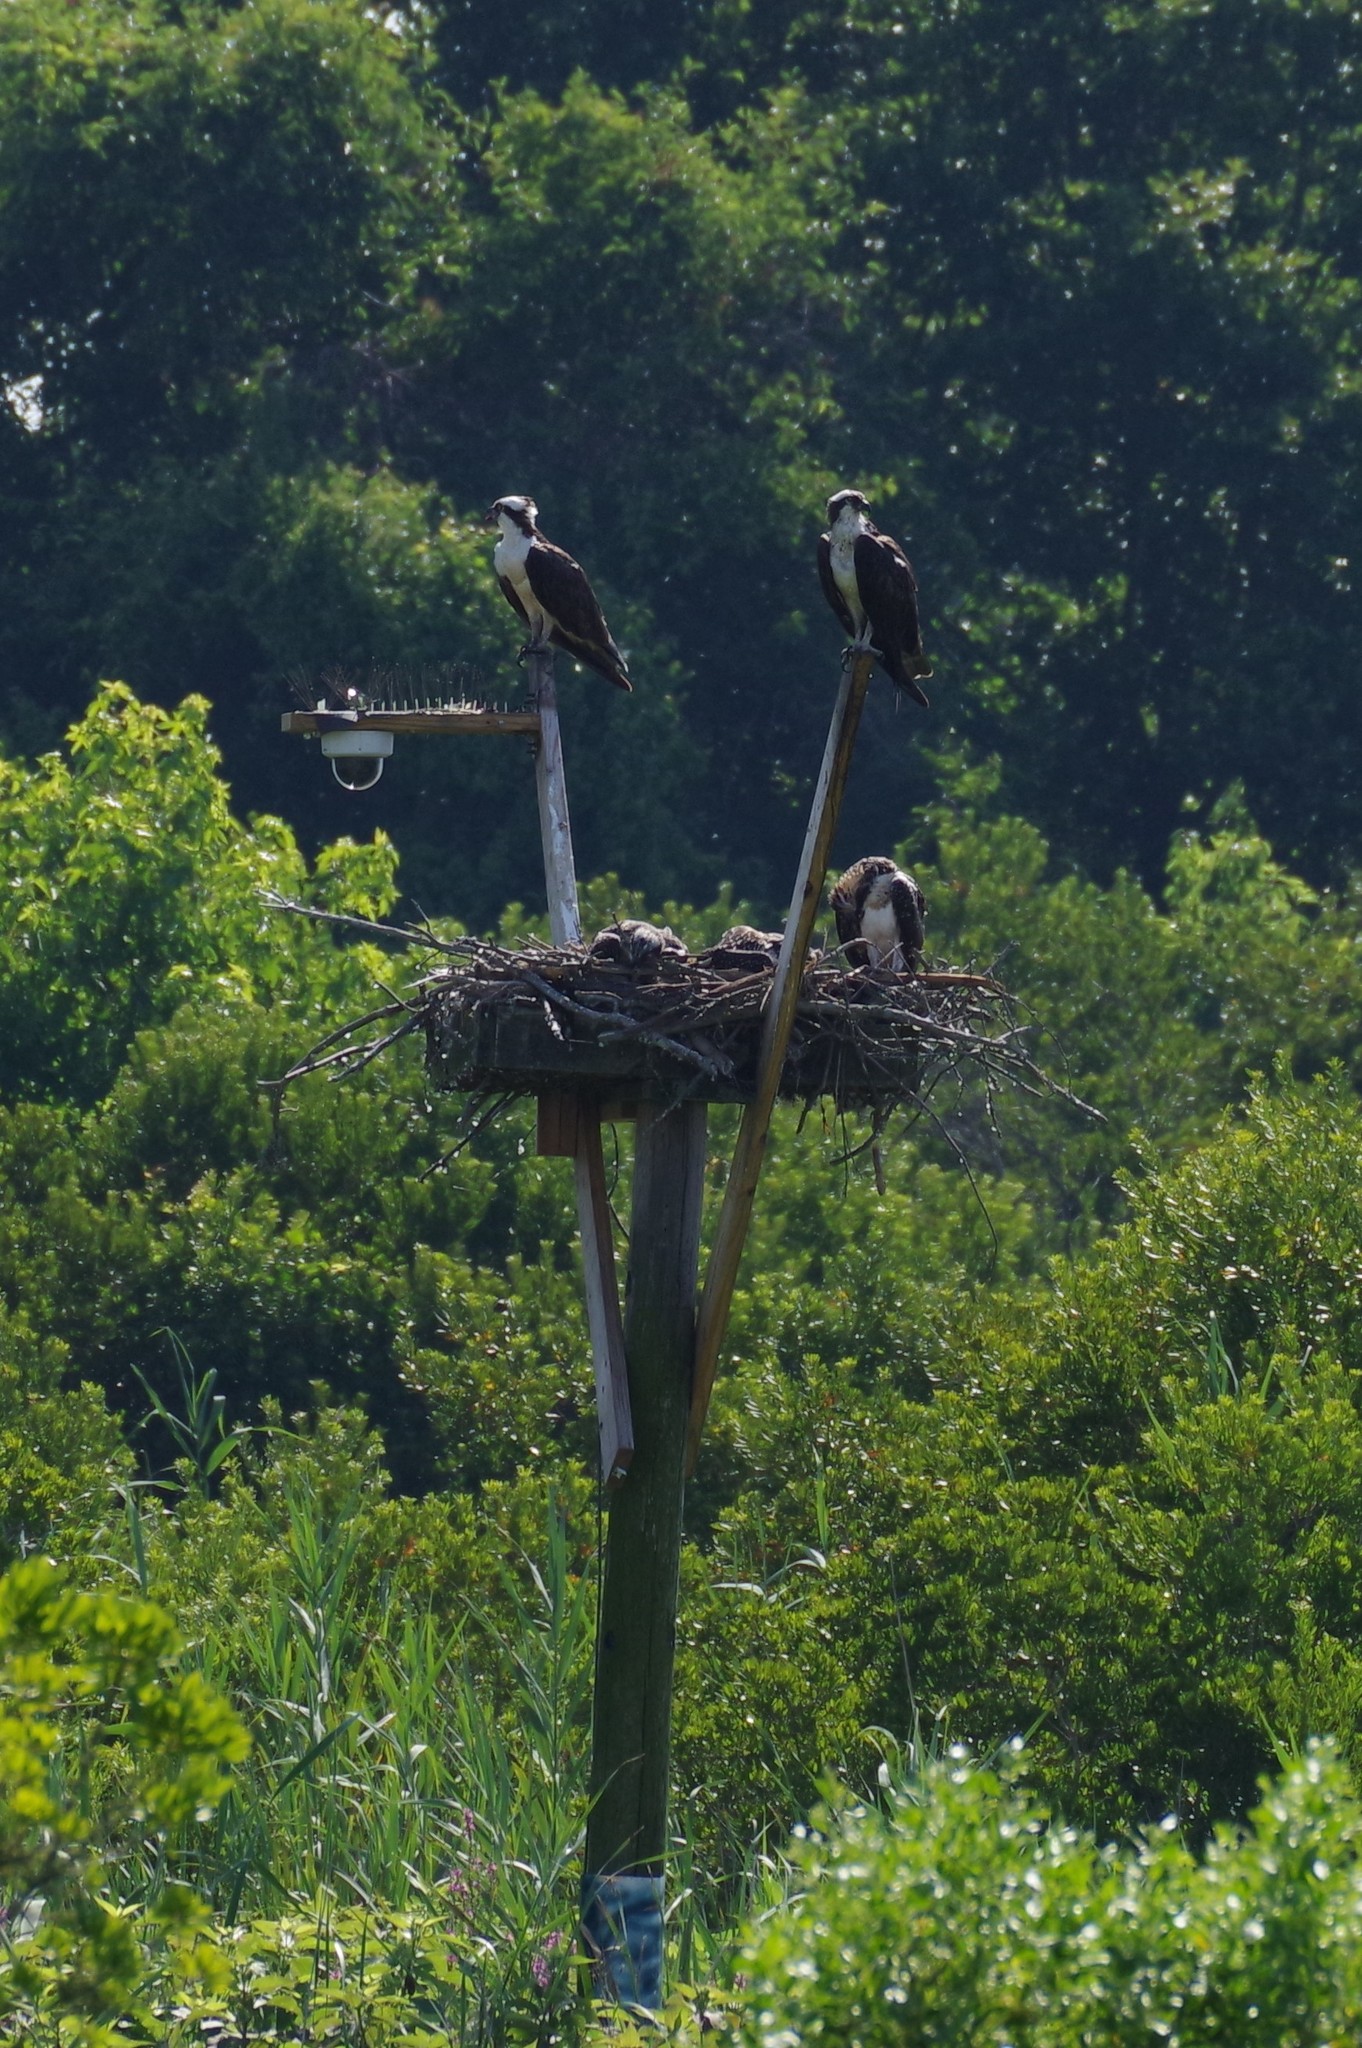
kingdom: Animalia
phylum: Chordata
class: Aves
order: Accipitriformes
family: Pandionidae
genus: Pandion
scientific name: Pandion haliaetus
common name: Osprey
